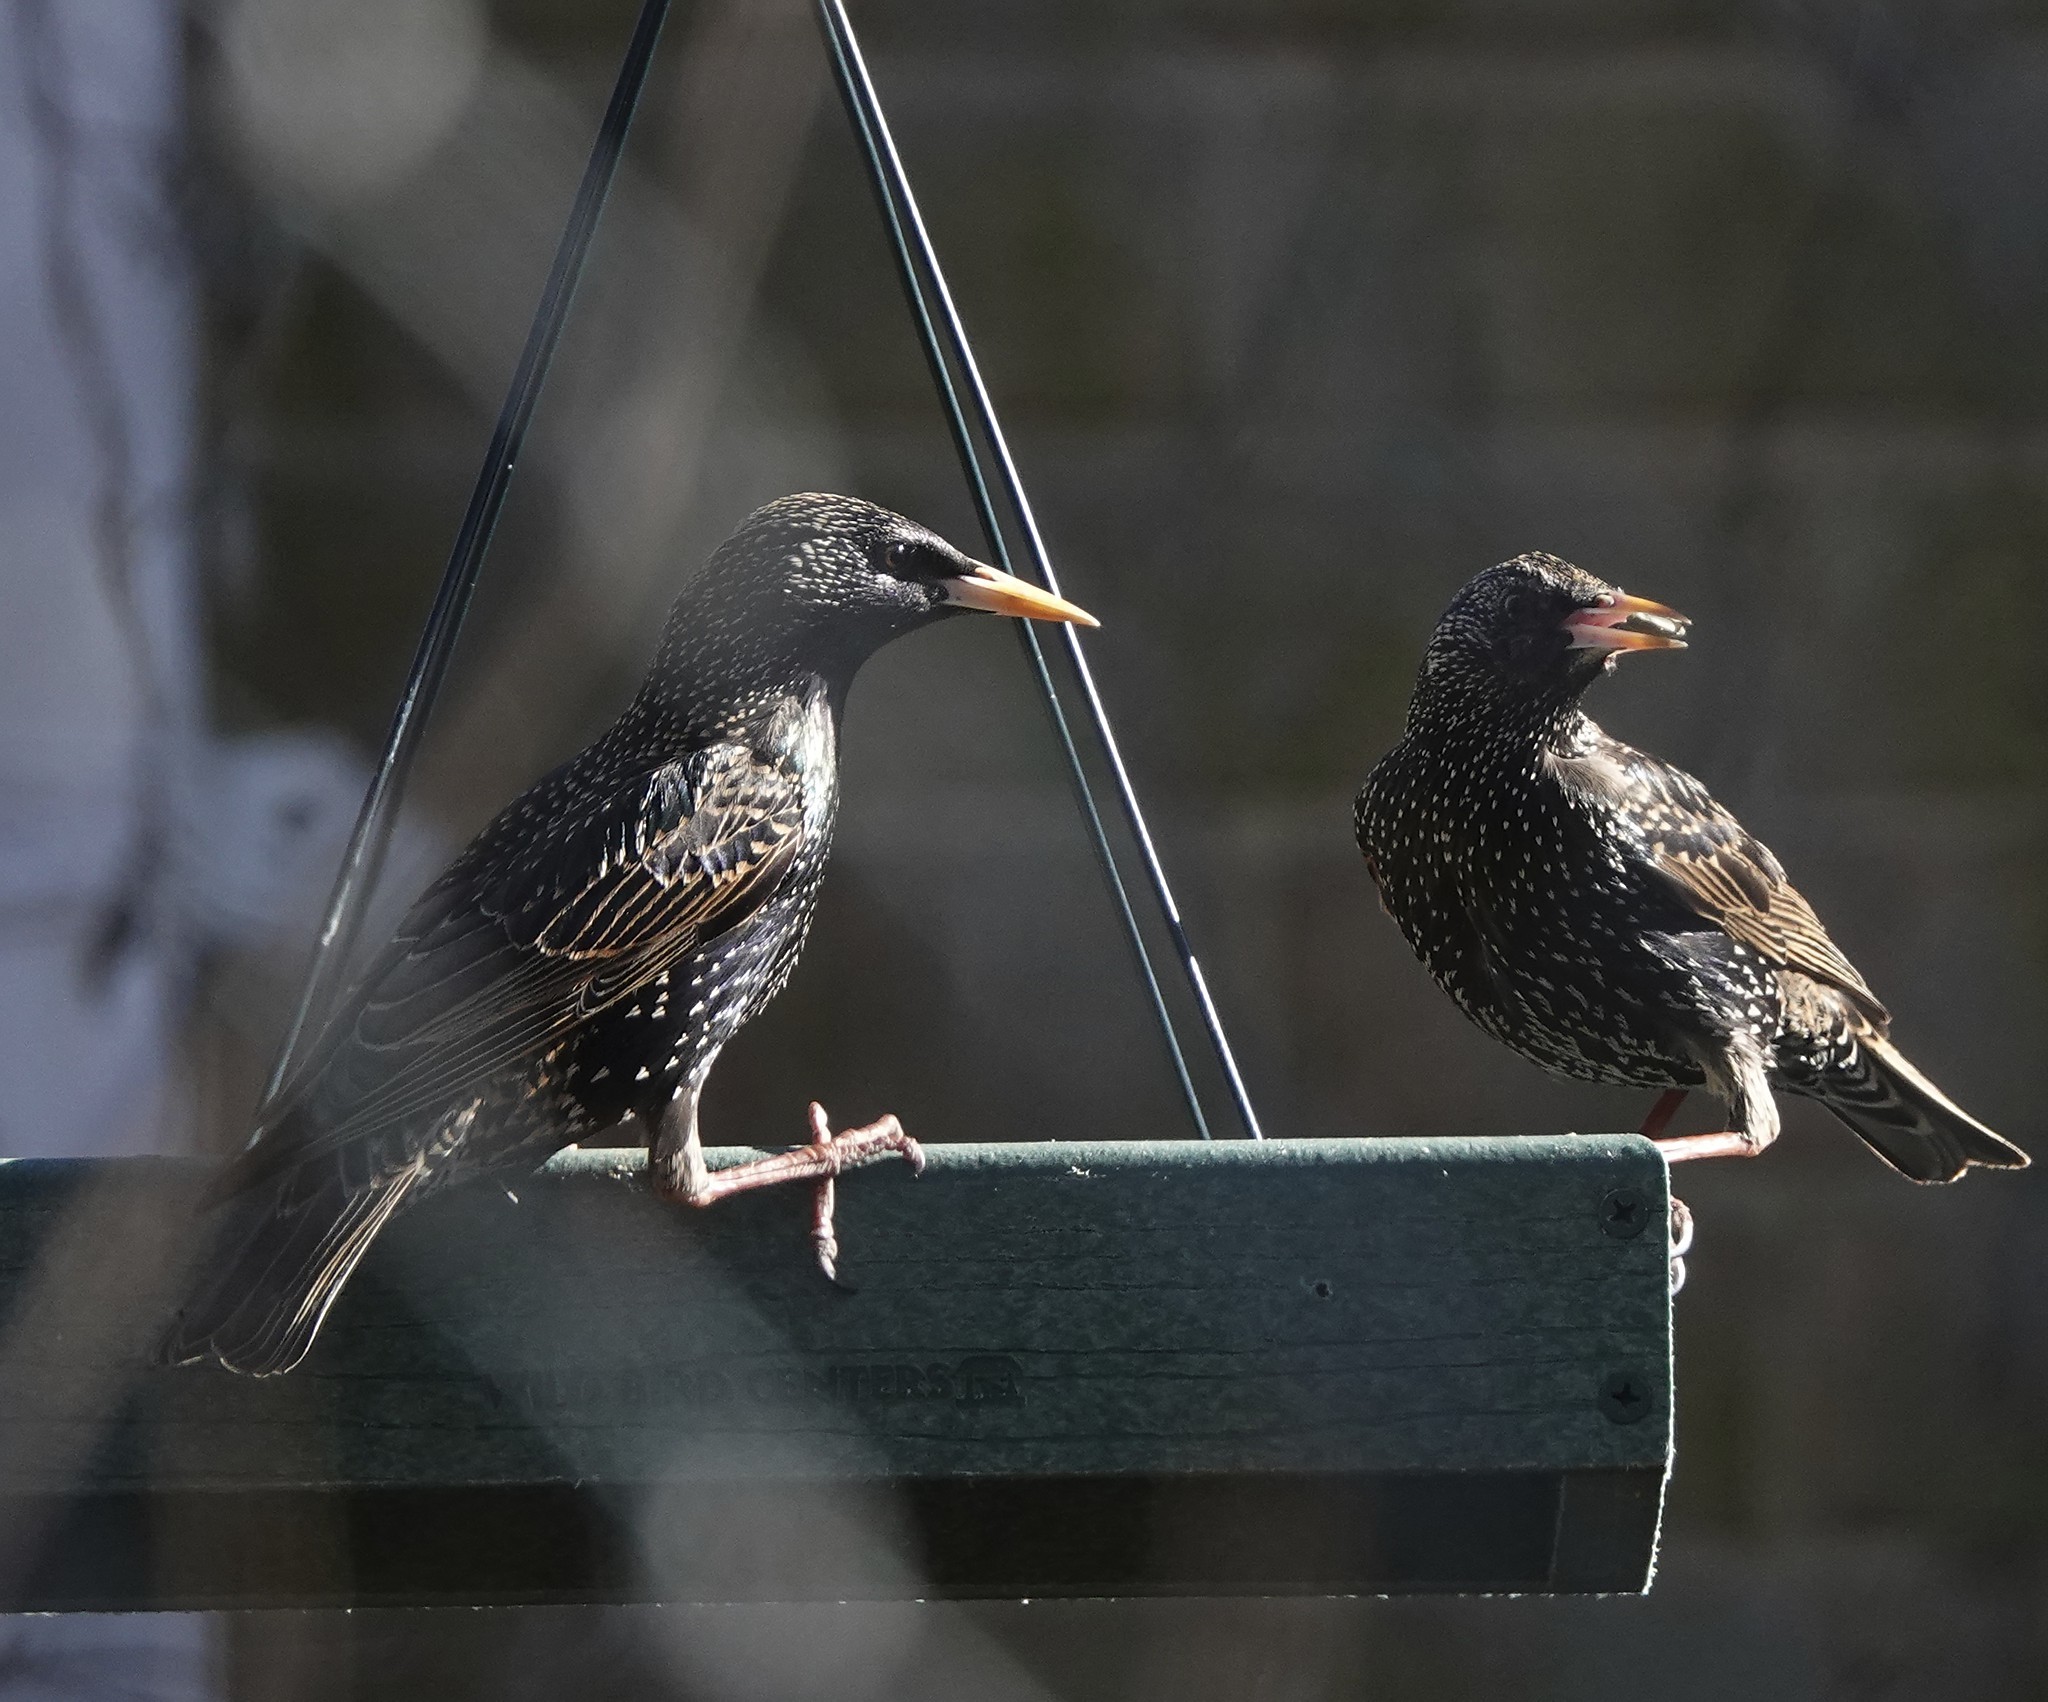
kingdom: Animalia
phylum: Chordata
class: Aves
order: Passeriformes
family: Sturnidae
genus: Sturnus
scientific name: Sturnus vulgaris
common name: Common starling
